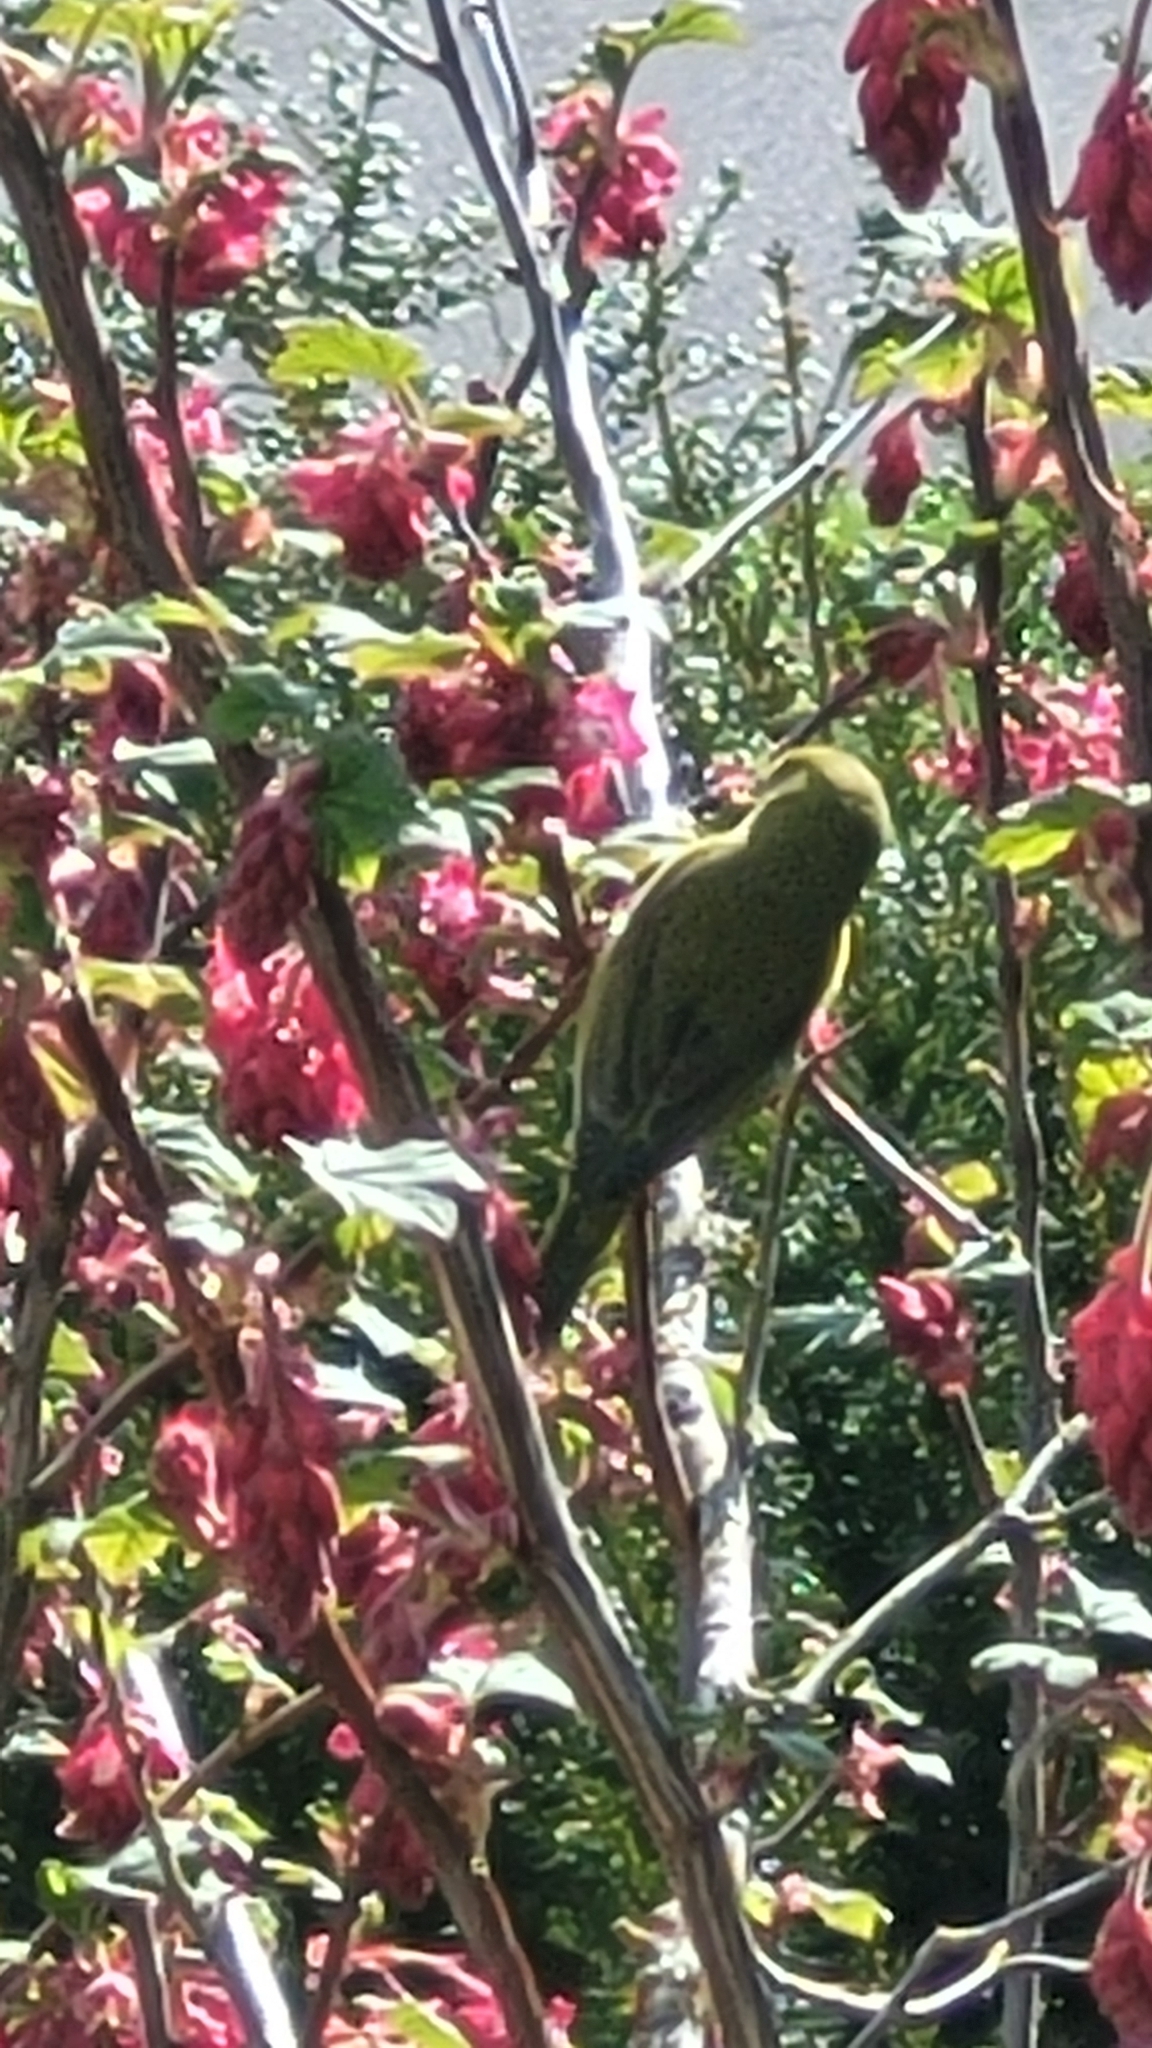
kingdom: Animalia
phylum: Chordata
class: Aves
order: Passeriformes
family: Parulidae
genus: Leiothlypis
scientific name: Leiothlypis celata
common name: Orange-crowned warbler
